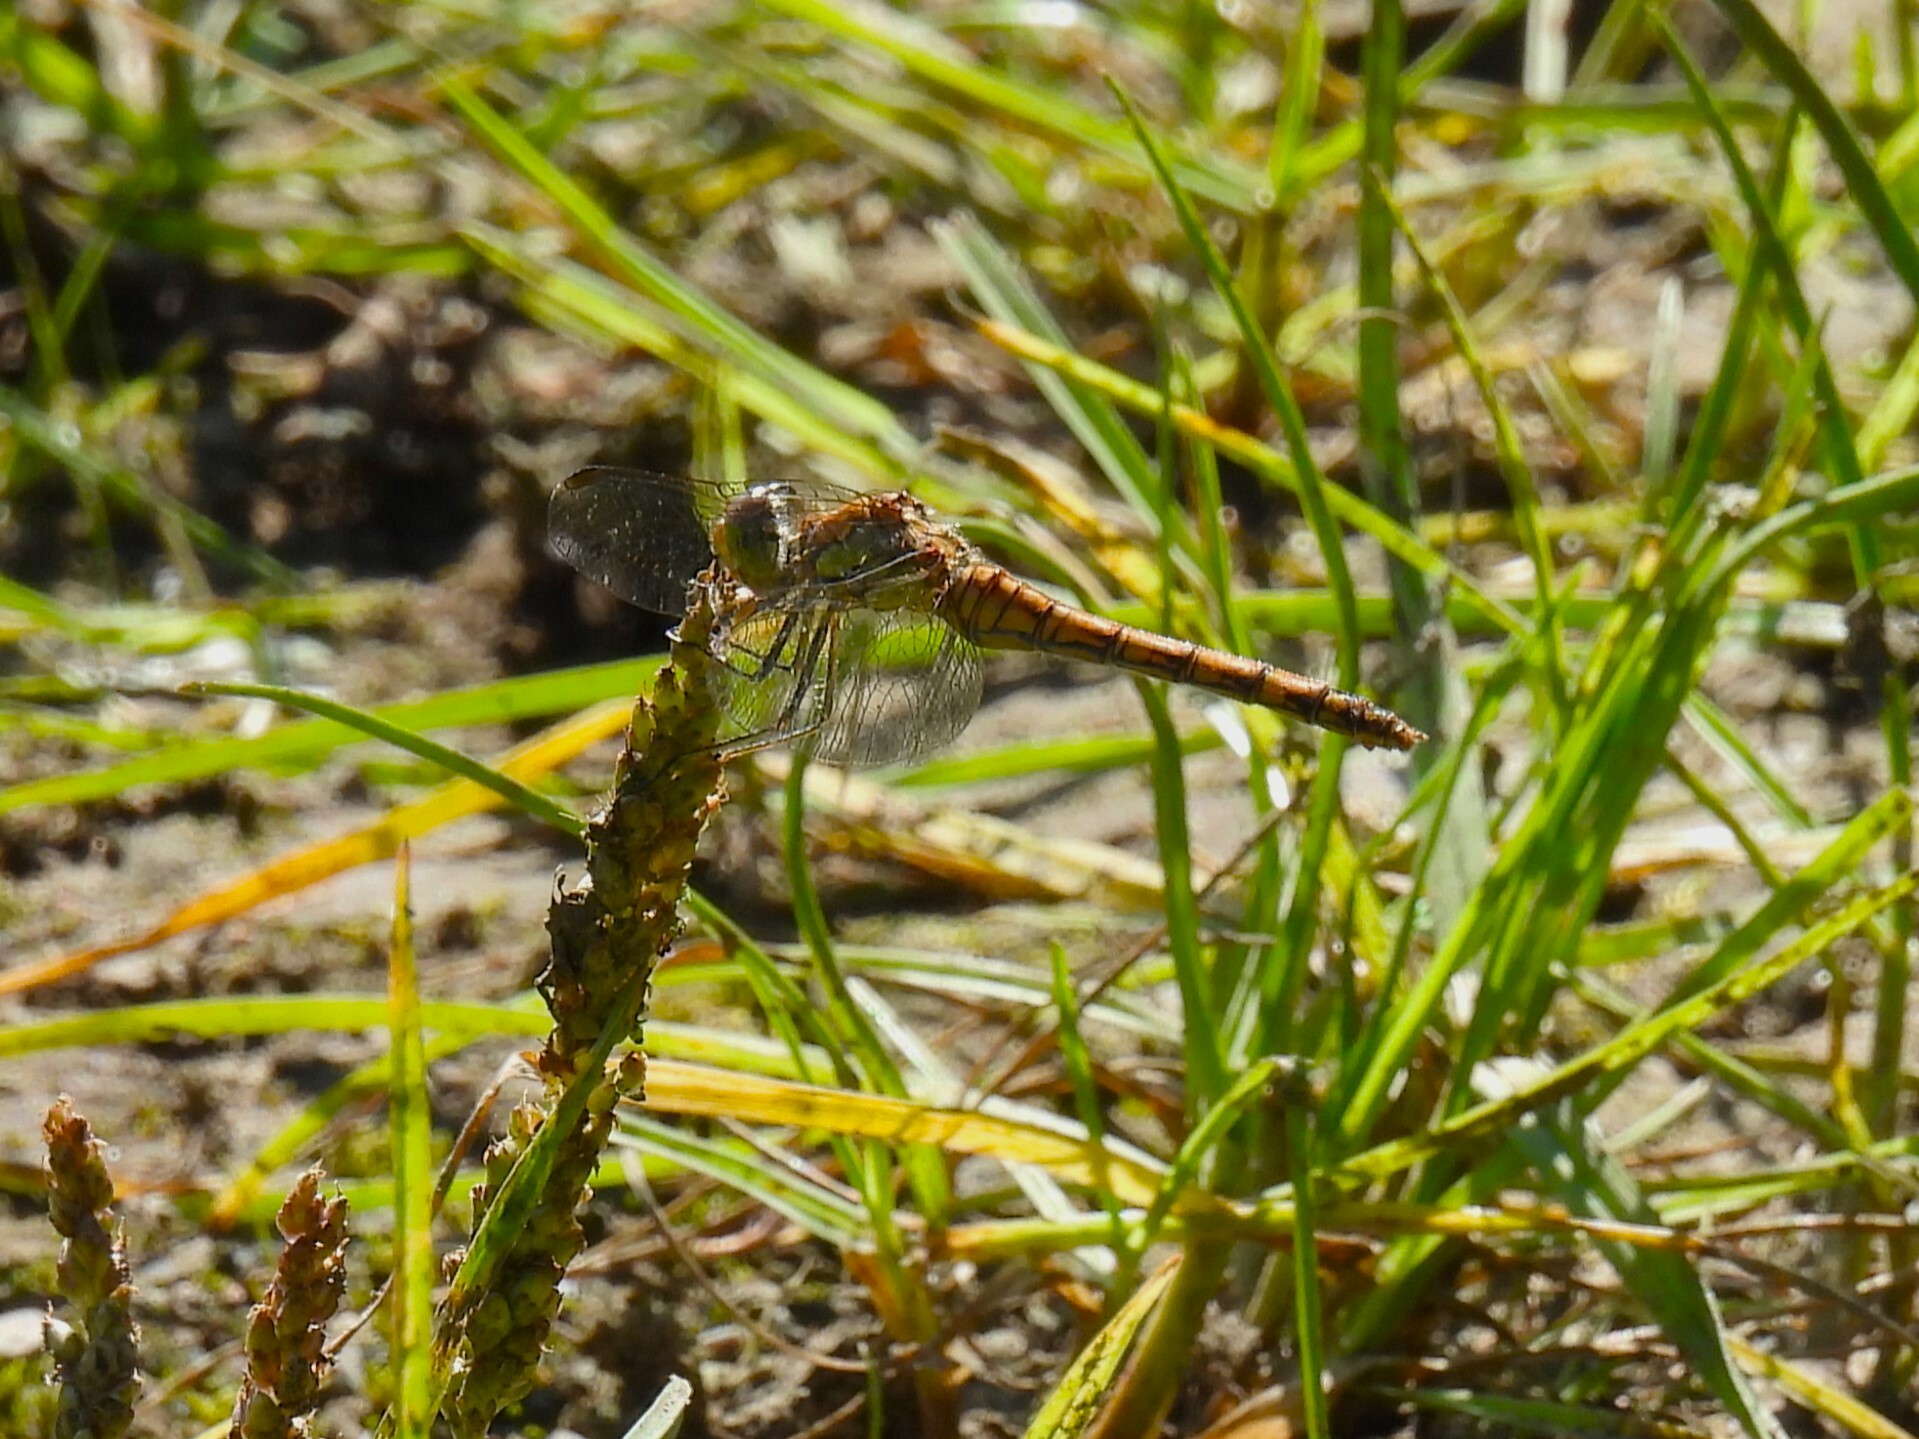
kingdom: Animalia
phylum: Arthropoda
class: Insecta
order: Odonata
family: Libellulidae
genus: Sympetrum
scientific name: Sympetrum striolatum
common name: Common darter
